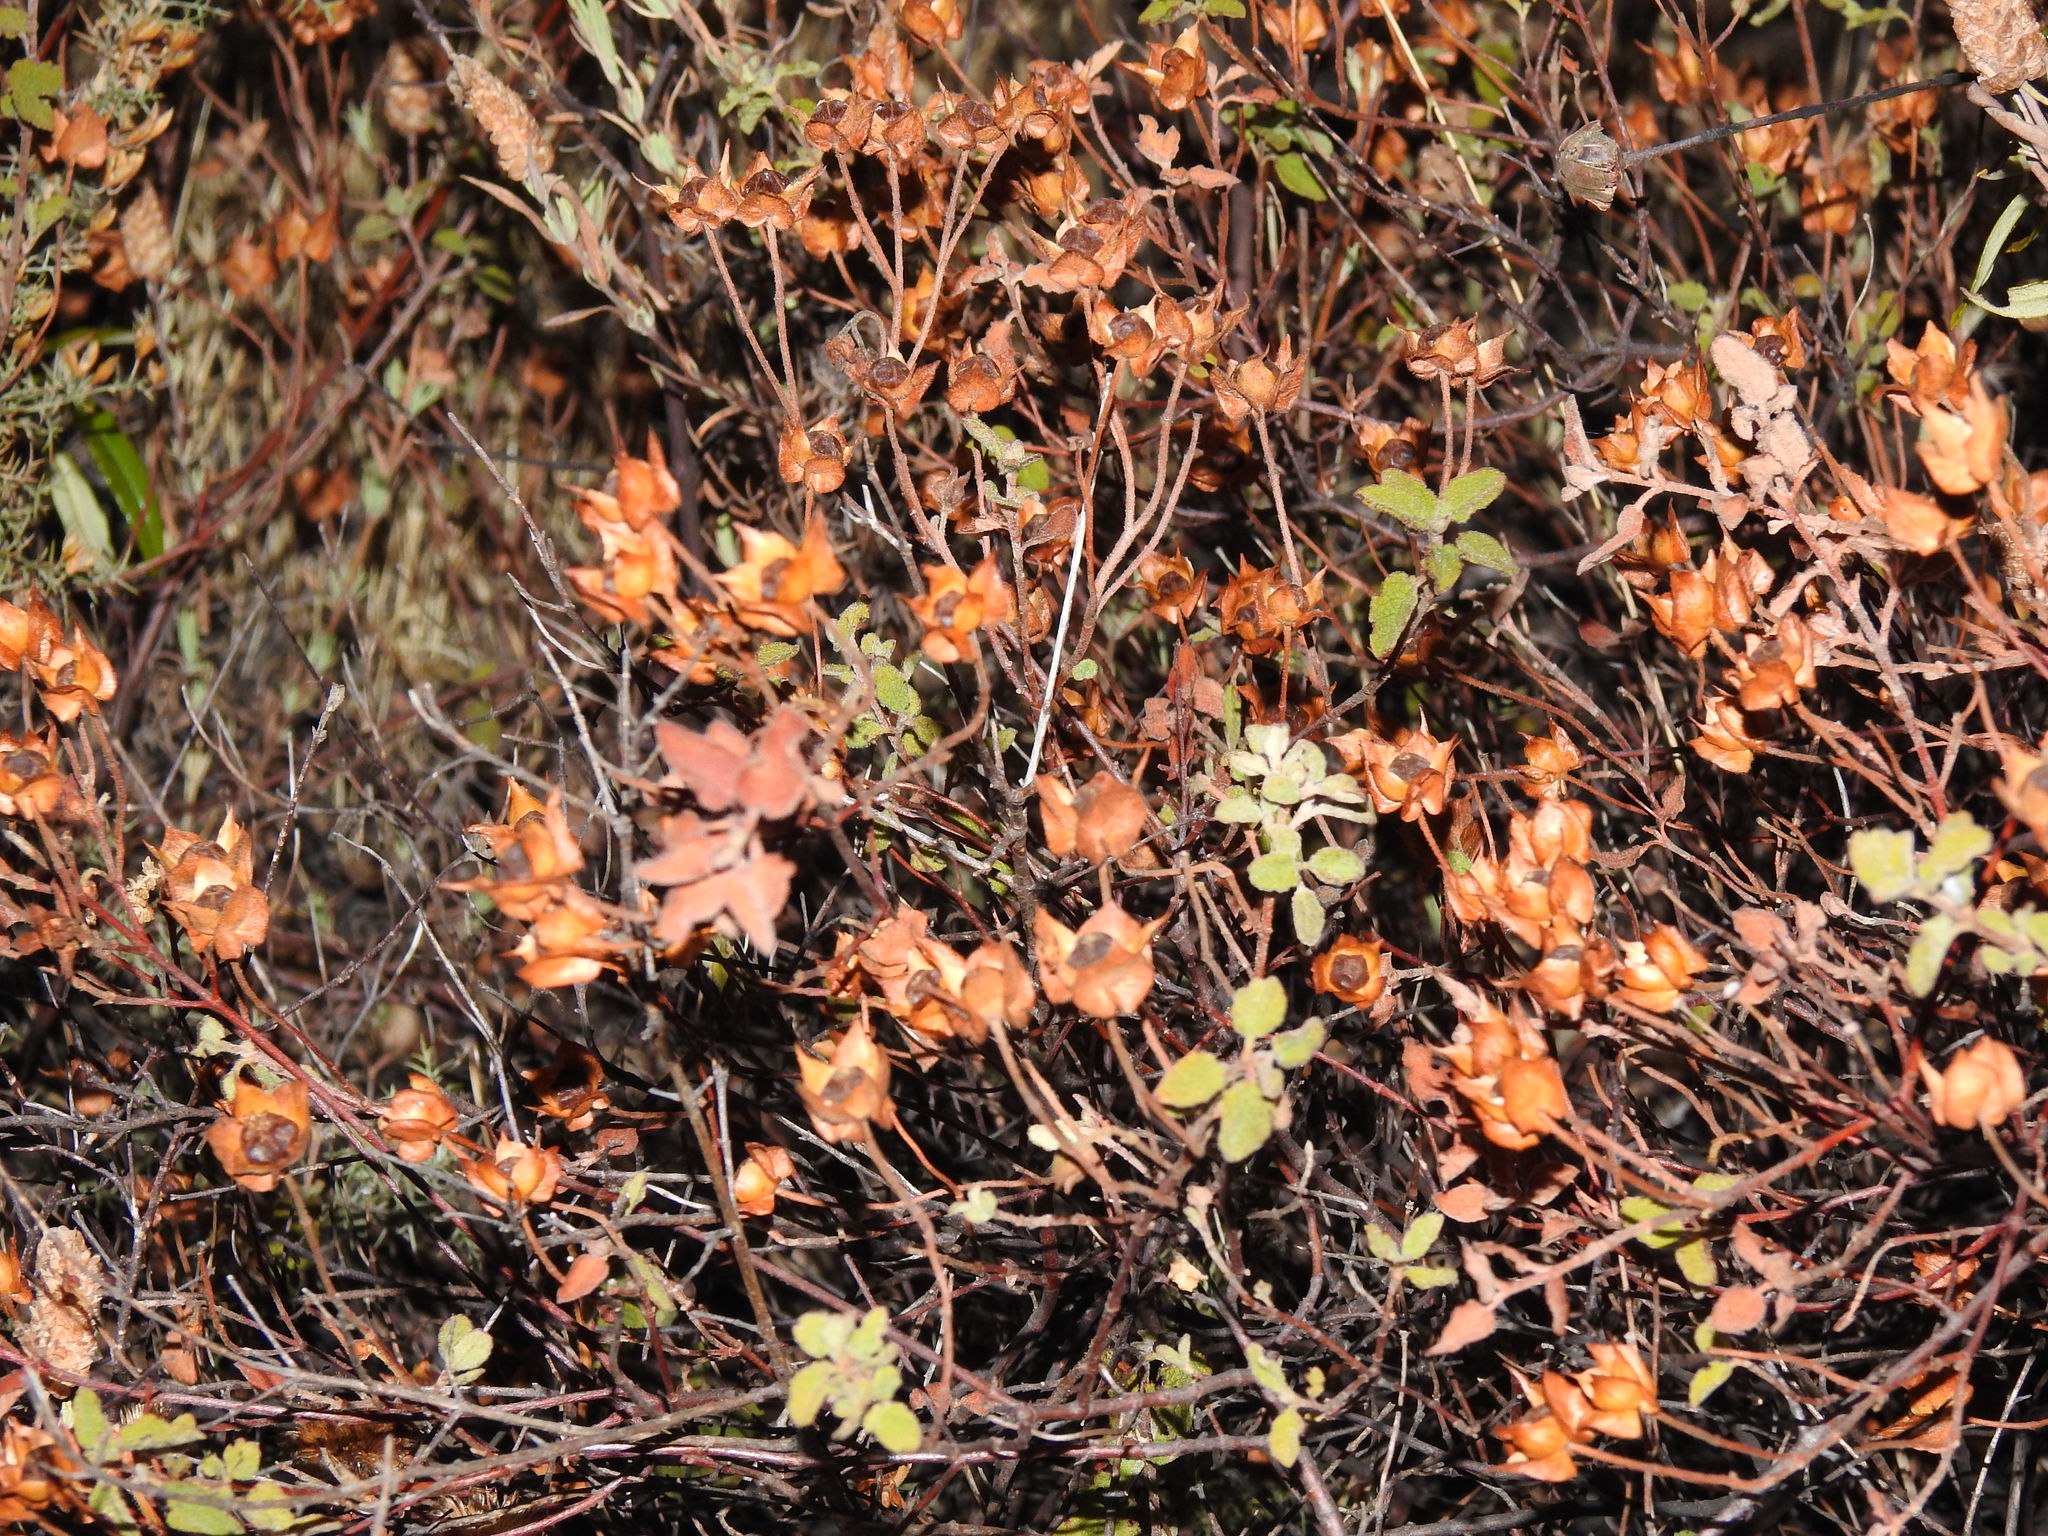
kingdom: Plantae
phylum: Tracheophyta
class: Magnoliopsida
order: Malvales
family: Cistaceae
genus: Cistus
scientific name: Cistus salviifolius
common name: Salvia cistus
